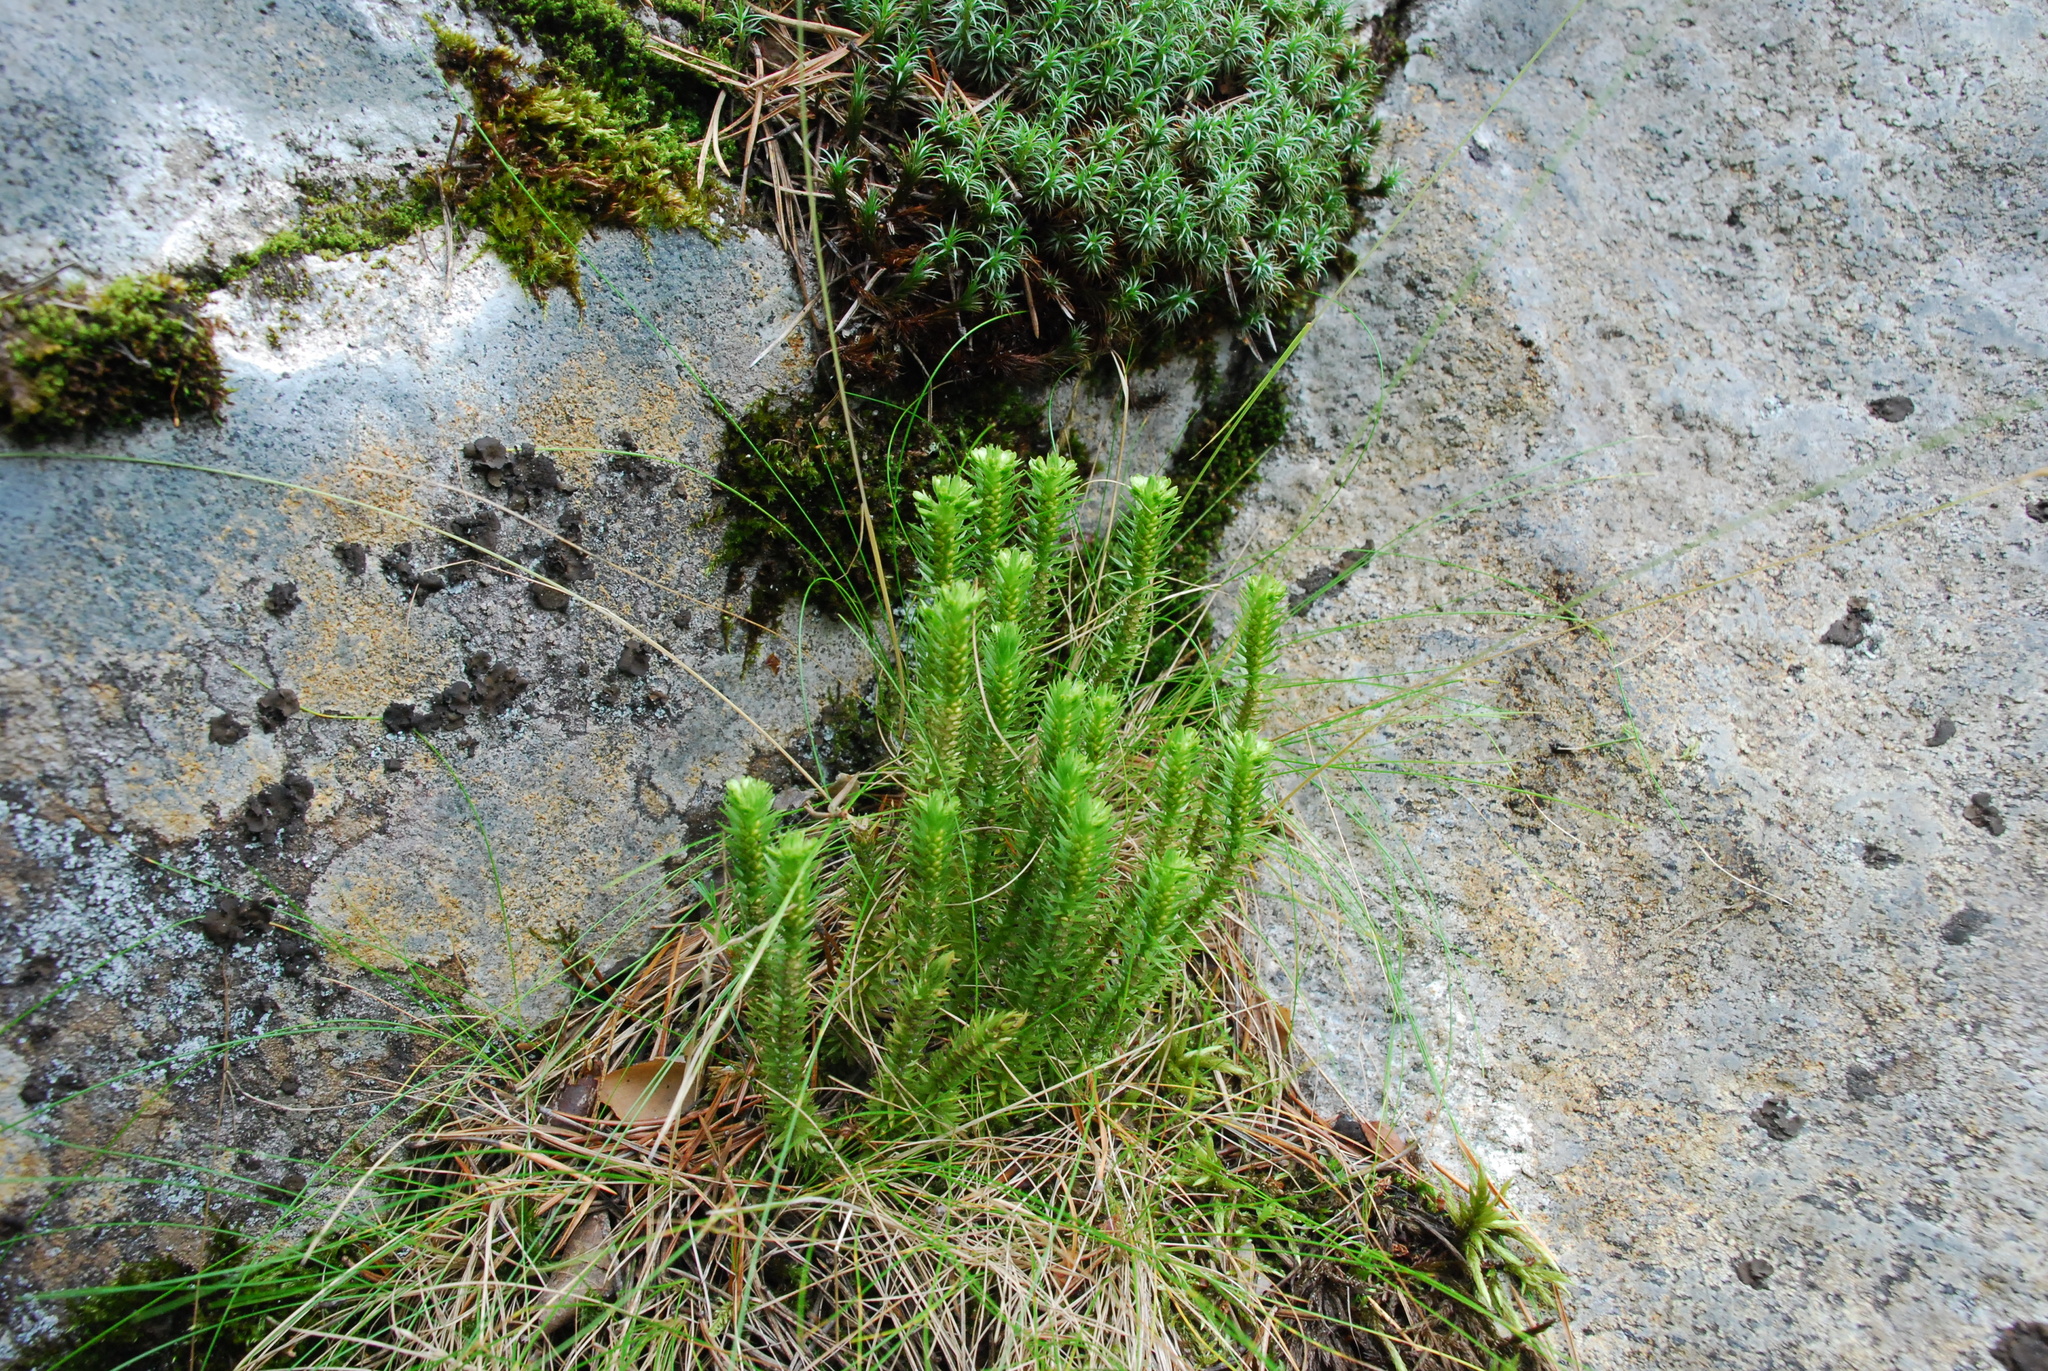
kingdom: Plantae
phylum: Tracheophyta
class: Lycopodiopsida
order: Lycopodiales
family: Lycopodiaceae
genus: Huperzia
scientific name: Huperzia selago
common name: Northern firmoss
